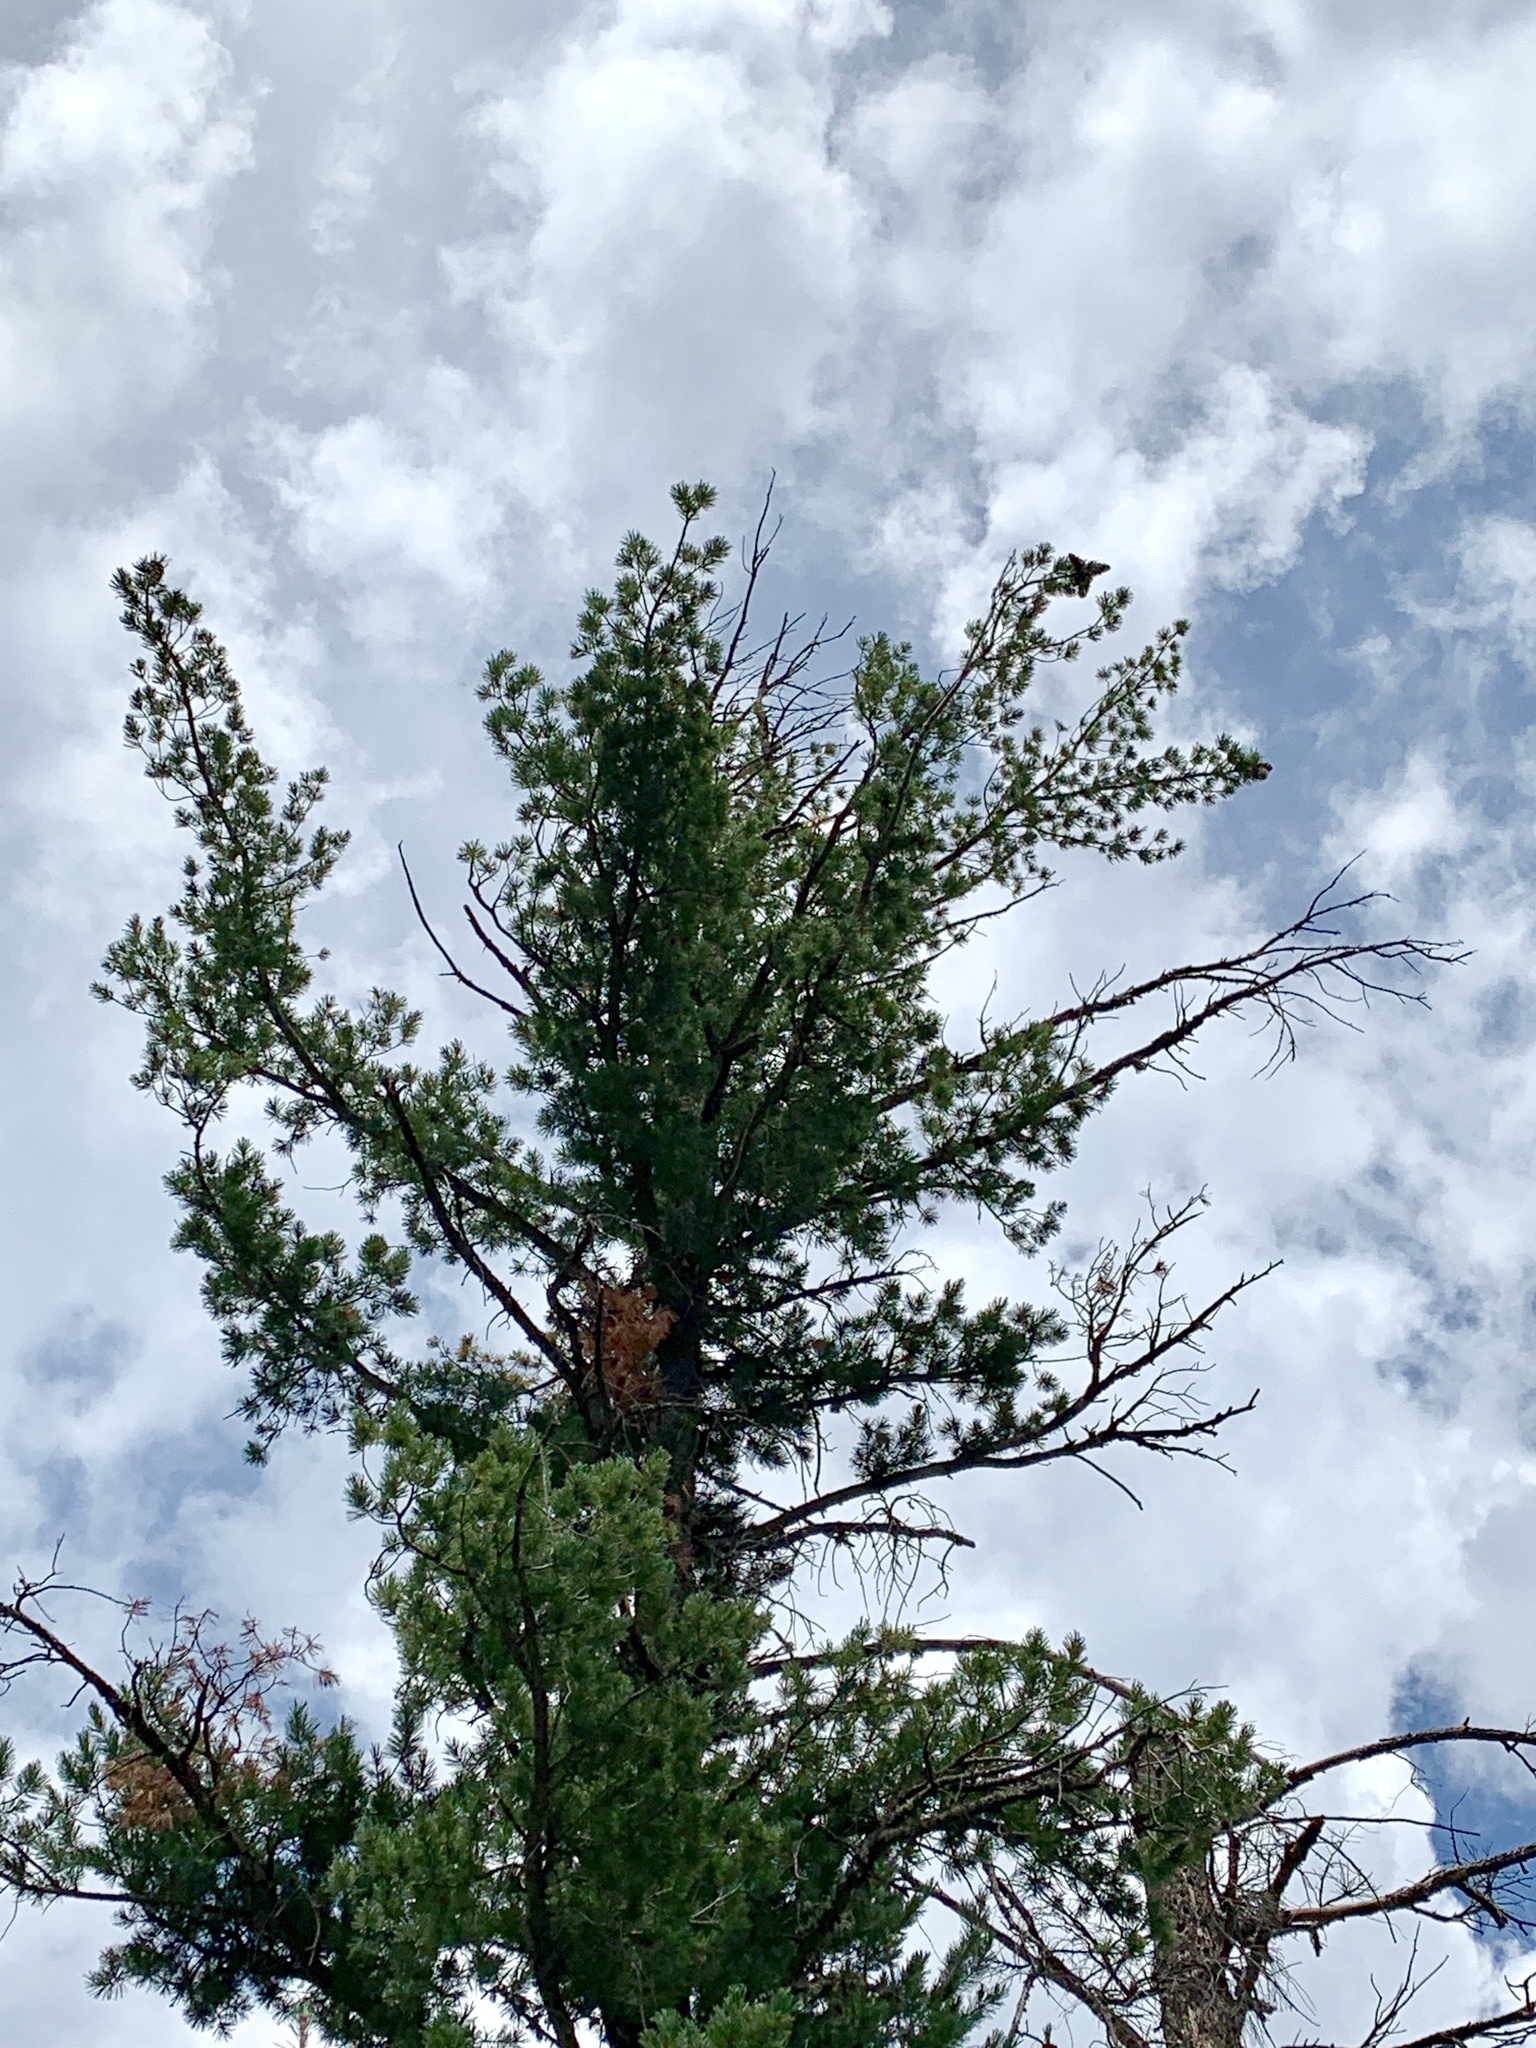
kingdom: Plantae
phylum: Tracheophyta
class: Pinopsida
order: Pinales
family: Pinaceae
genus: Pinus
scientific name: Pinus strobiformis
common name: Southwestern white pine
